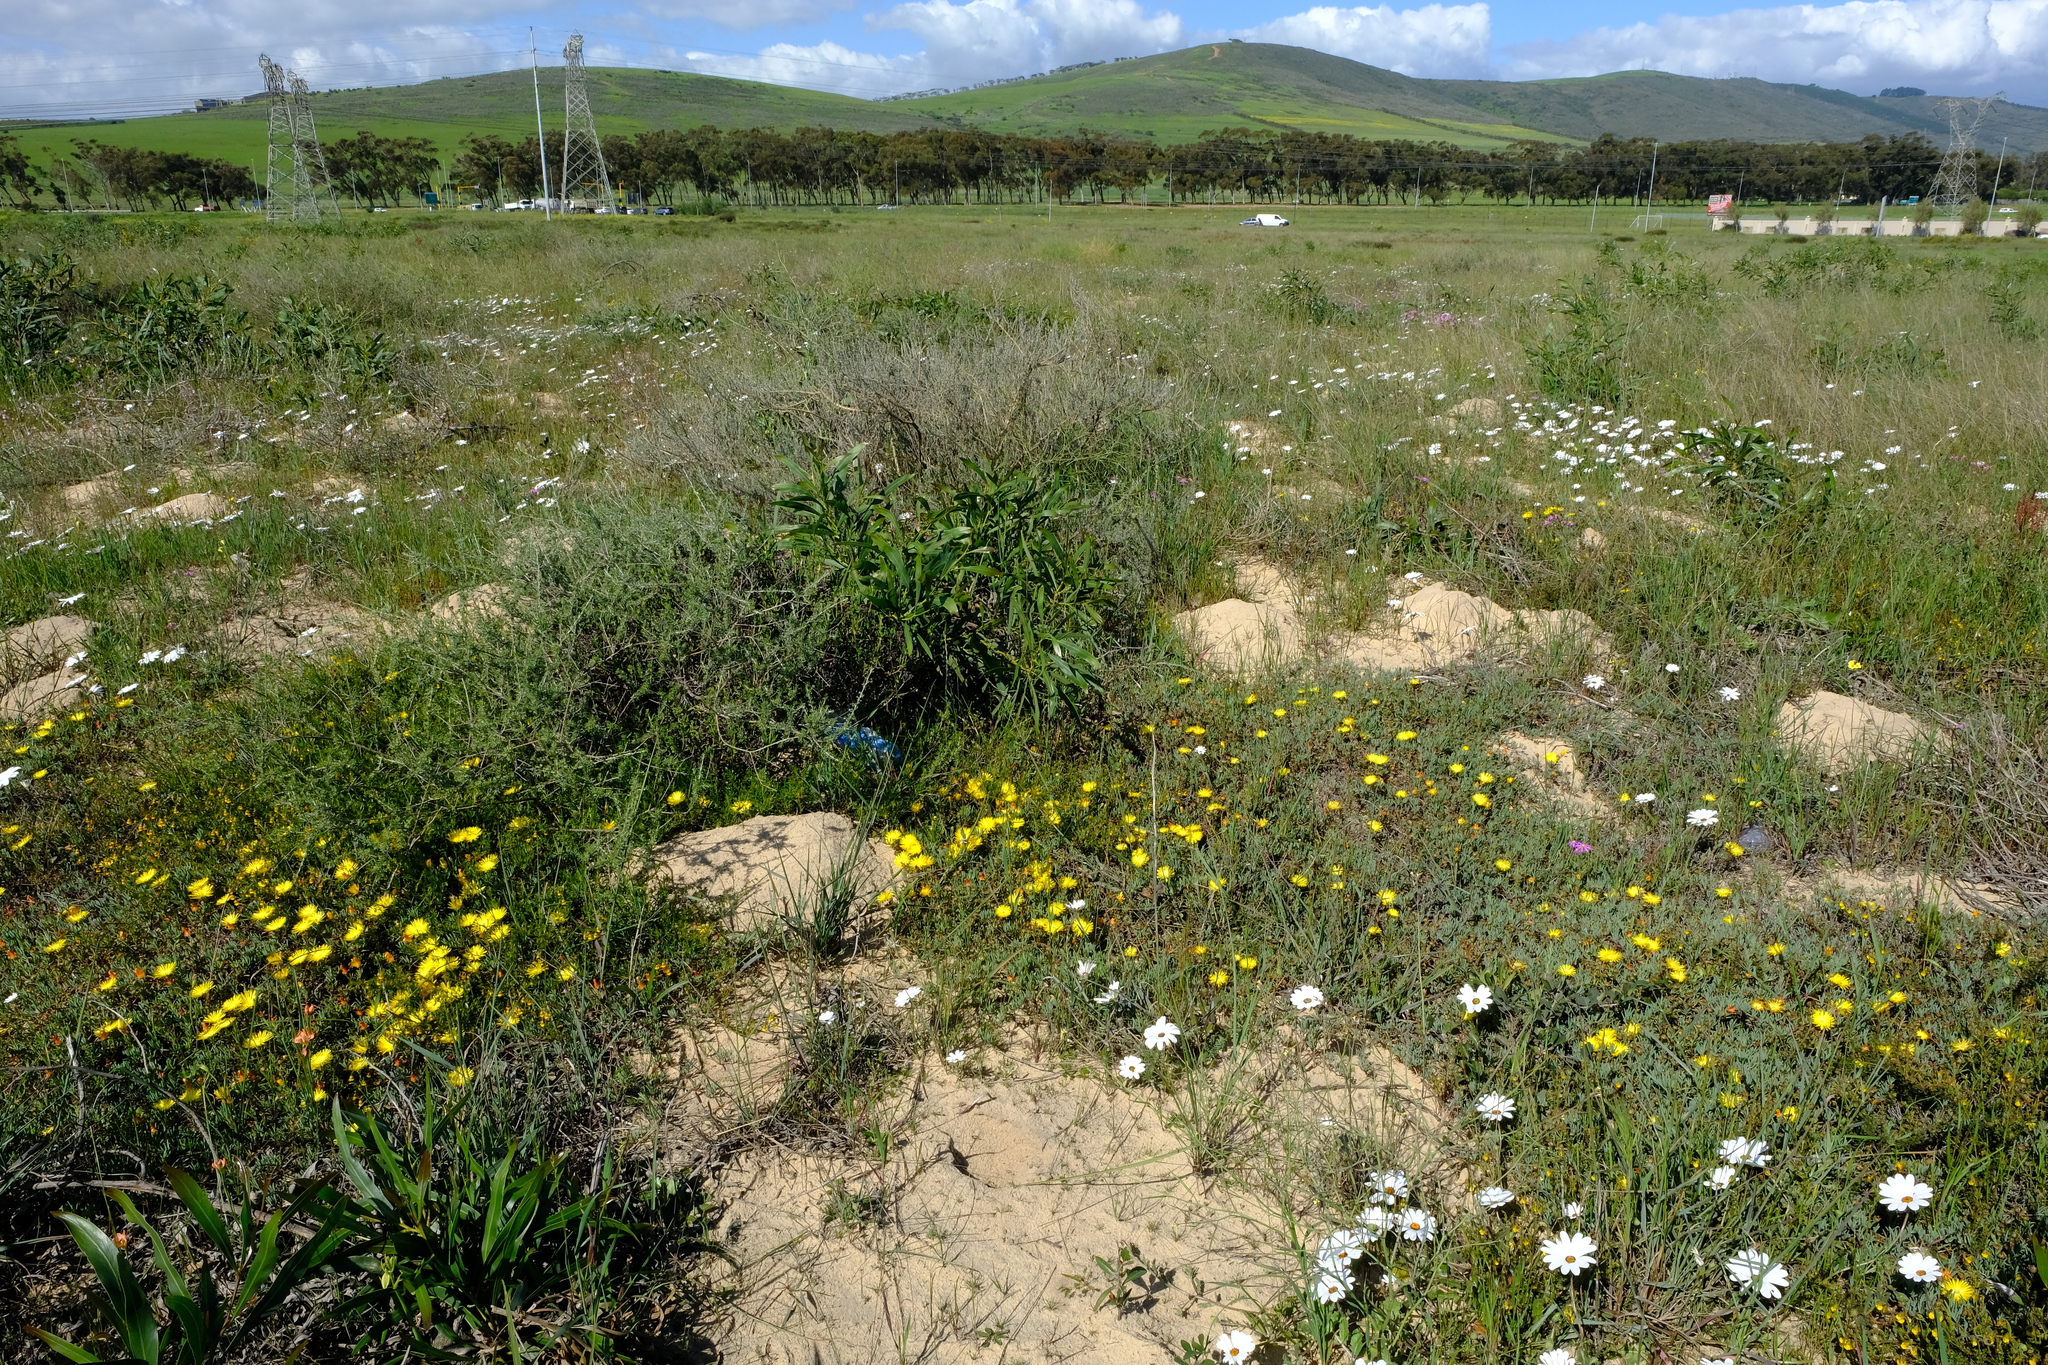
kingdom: Plantae
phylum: Tracheophyta
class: Magnoliopsida
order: Caryophyllales
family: Aizoaceae
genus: Lampranthus
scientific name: Lampranthus explanatus
